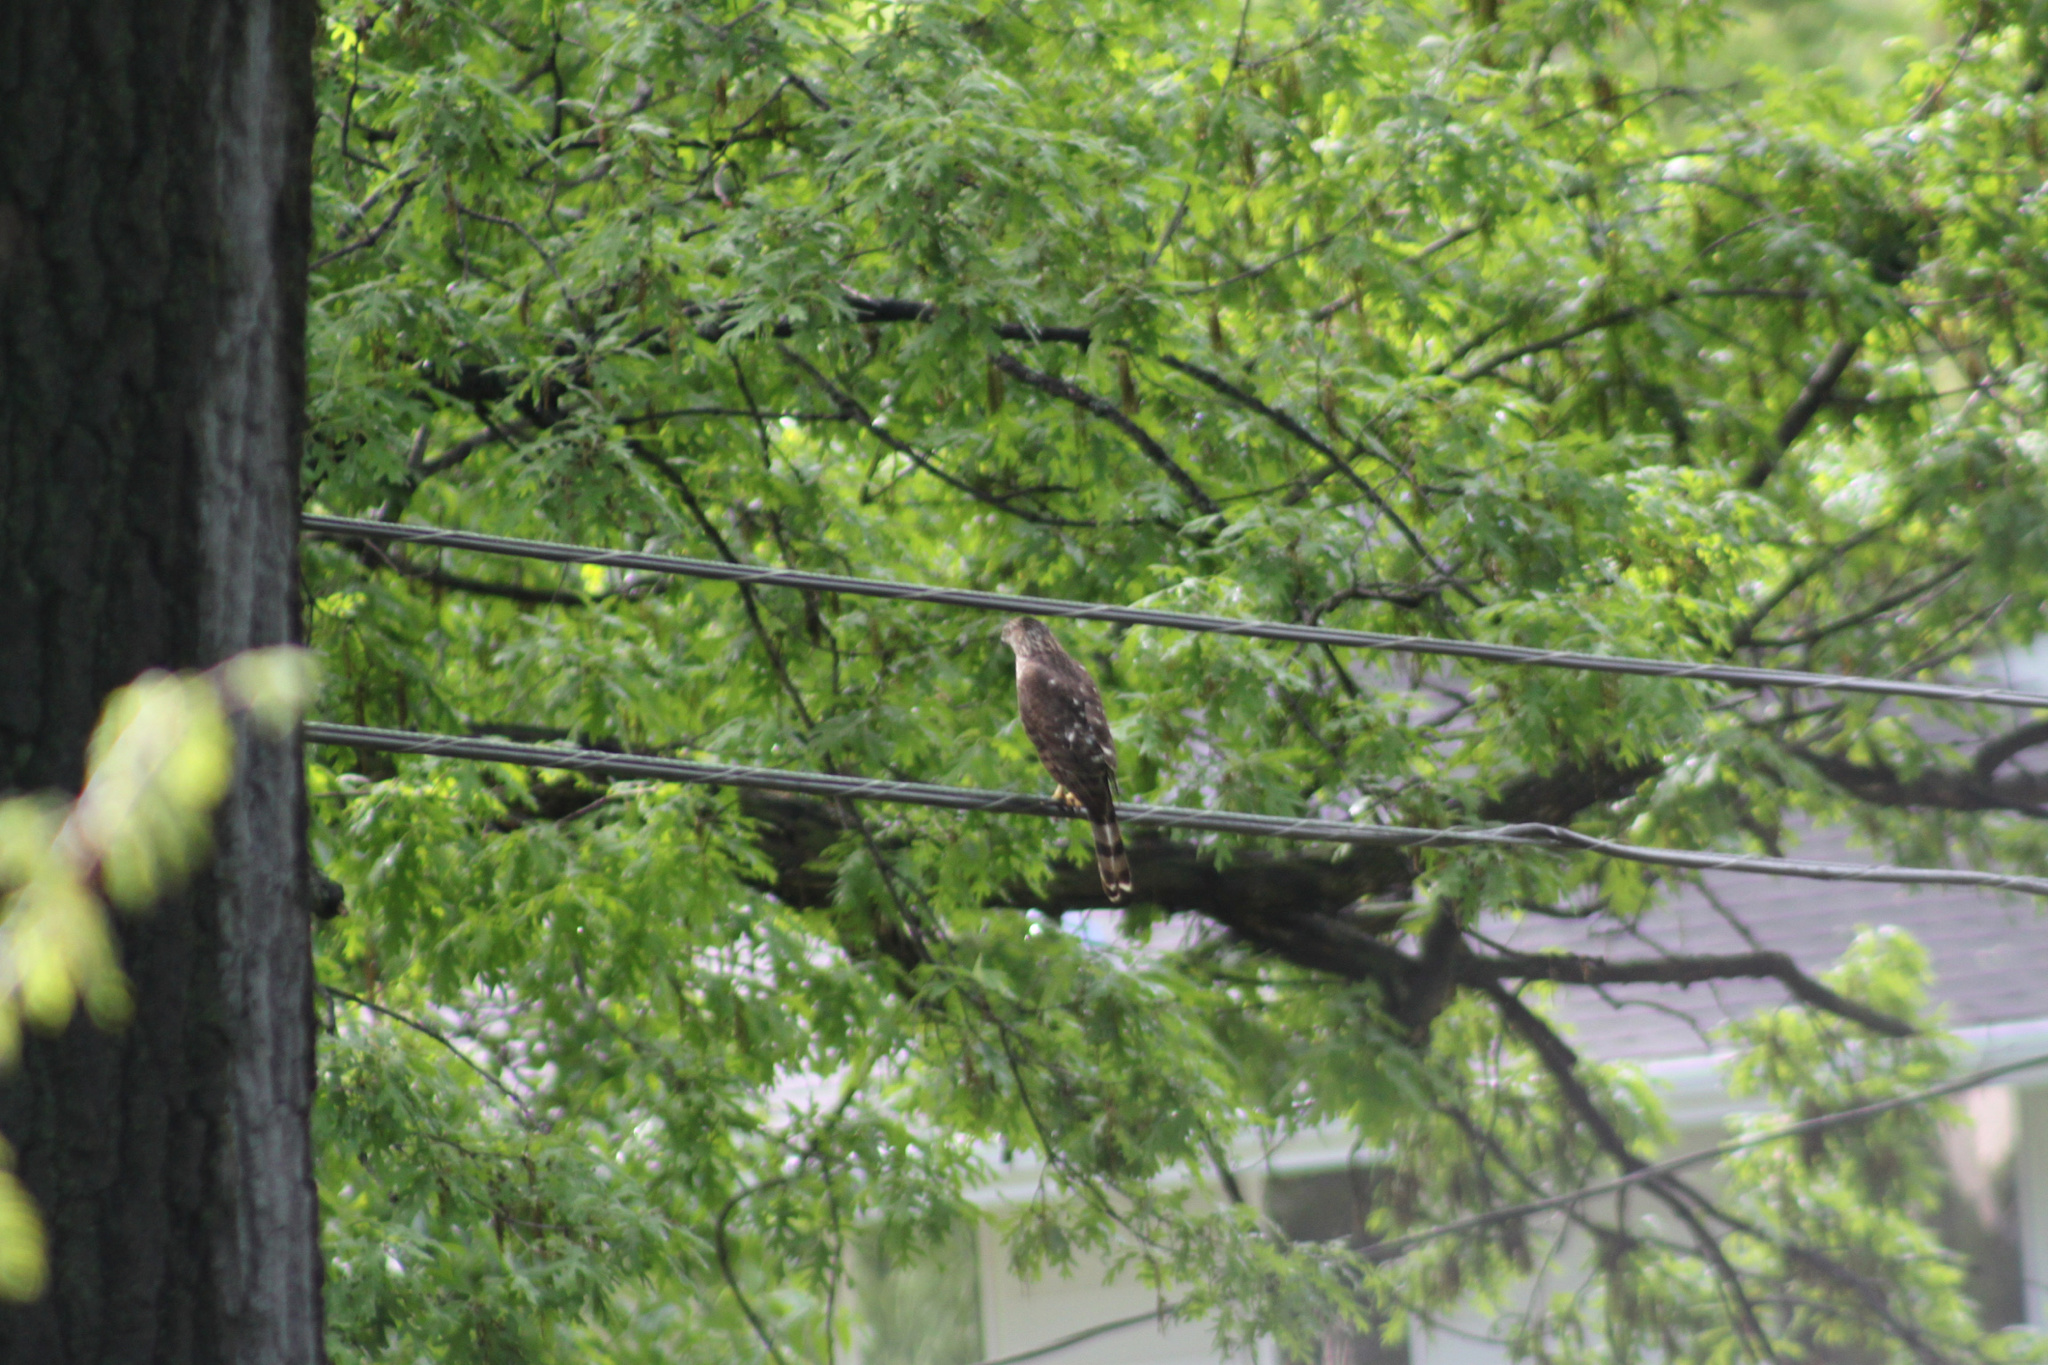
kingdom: Animalia
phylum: Chordata
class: Aves
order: Accipitriformes
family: Accipitridae
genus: Accipiter
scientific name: Accipiter cooperii
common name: Cooper's hawk
